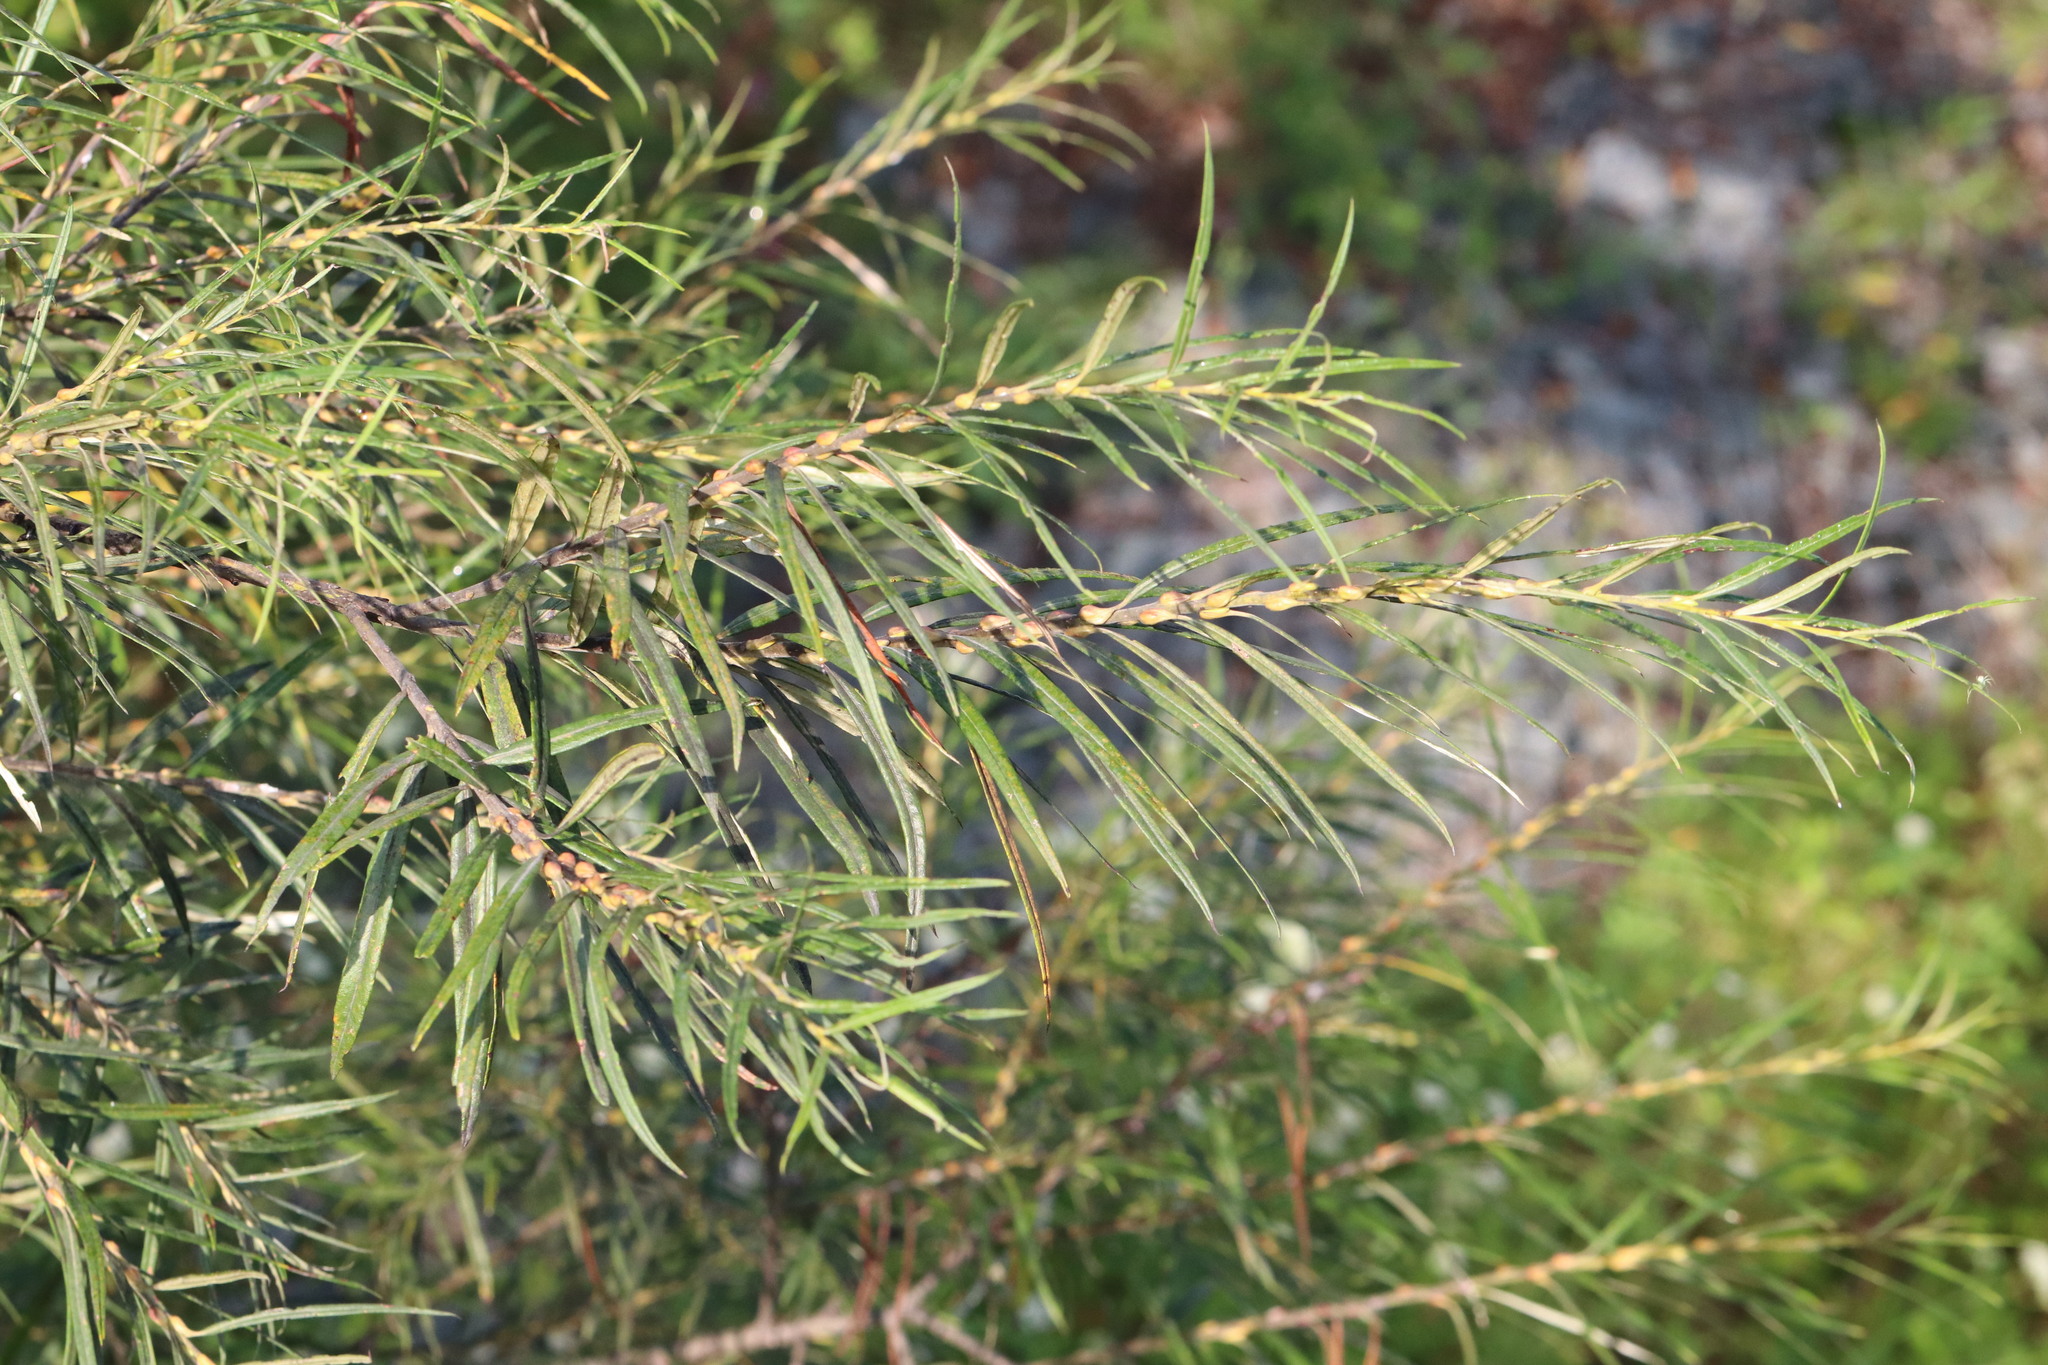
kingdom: Plantae
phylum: Tracheophyta
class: Magnoliopsida
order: Malpighiales
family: Salicaceae
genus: Salix
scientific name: Salix schwerinii
